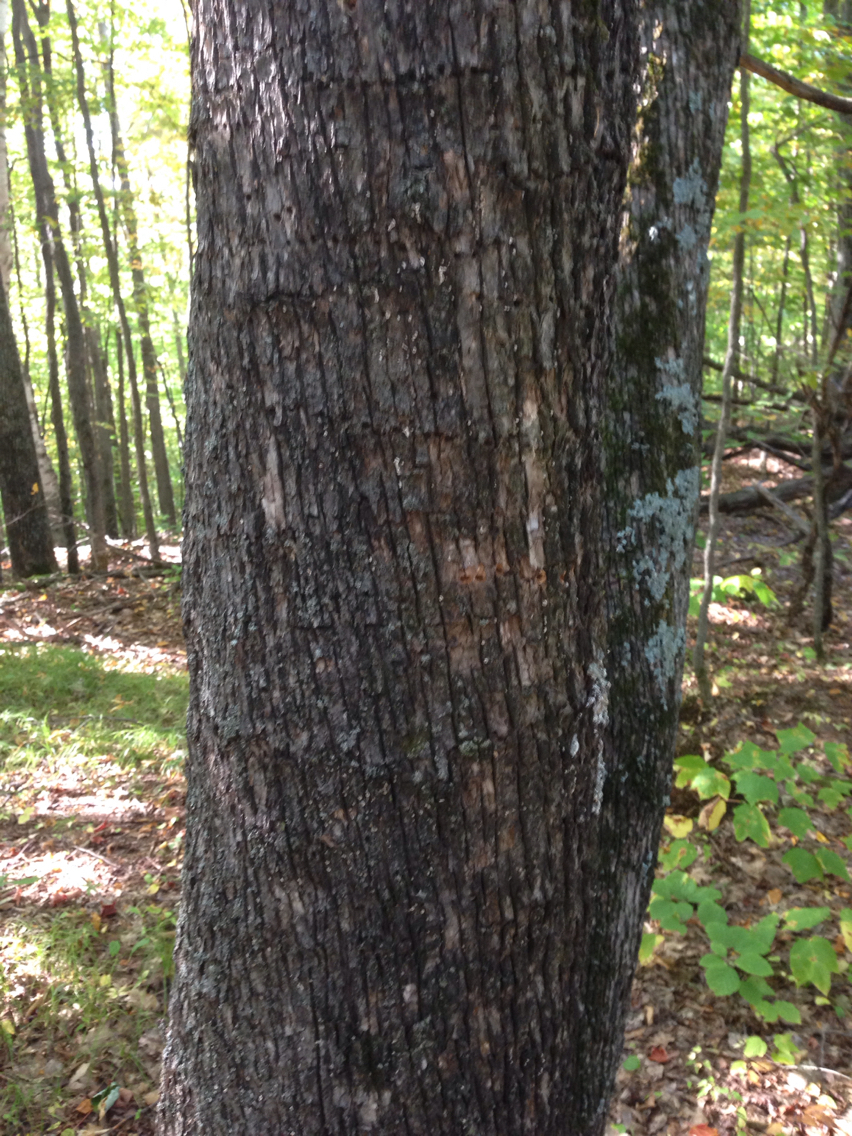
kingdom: Plantae
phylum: Tracheophyta
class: Magnoliopsida
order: Fagales
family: Betulaceae
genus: Ostrya
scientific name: Ostrya virginiana
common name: Ironwood
